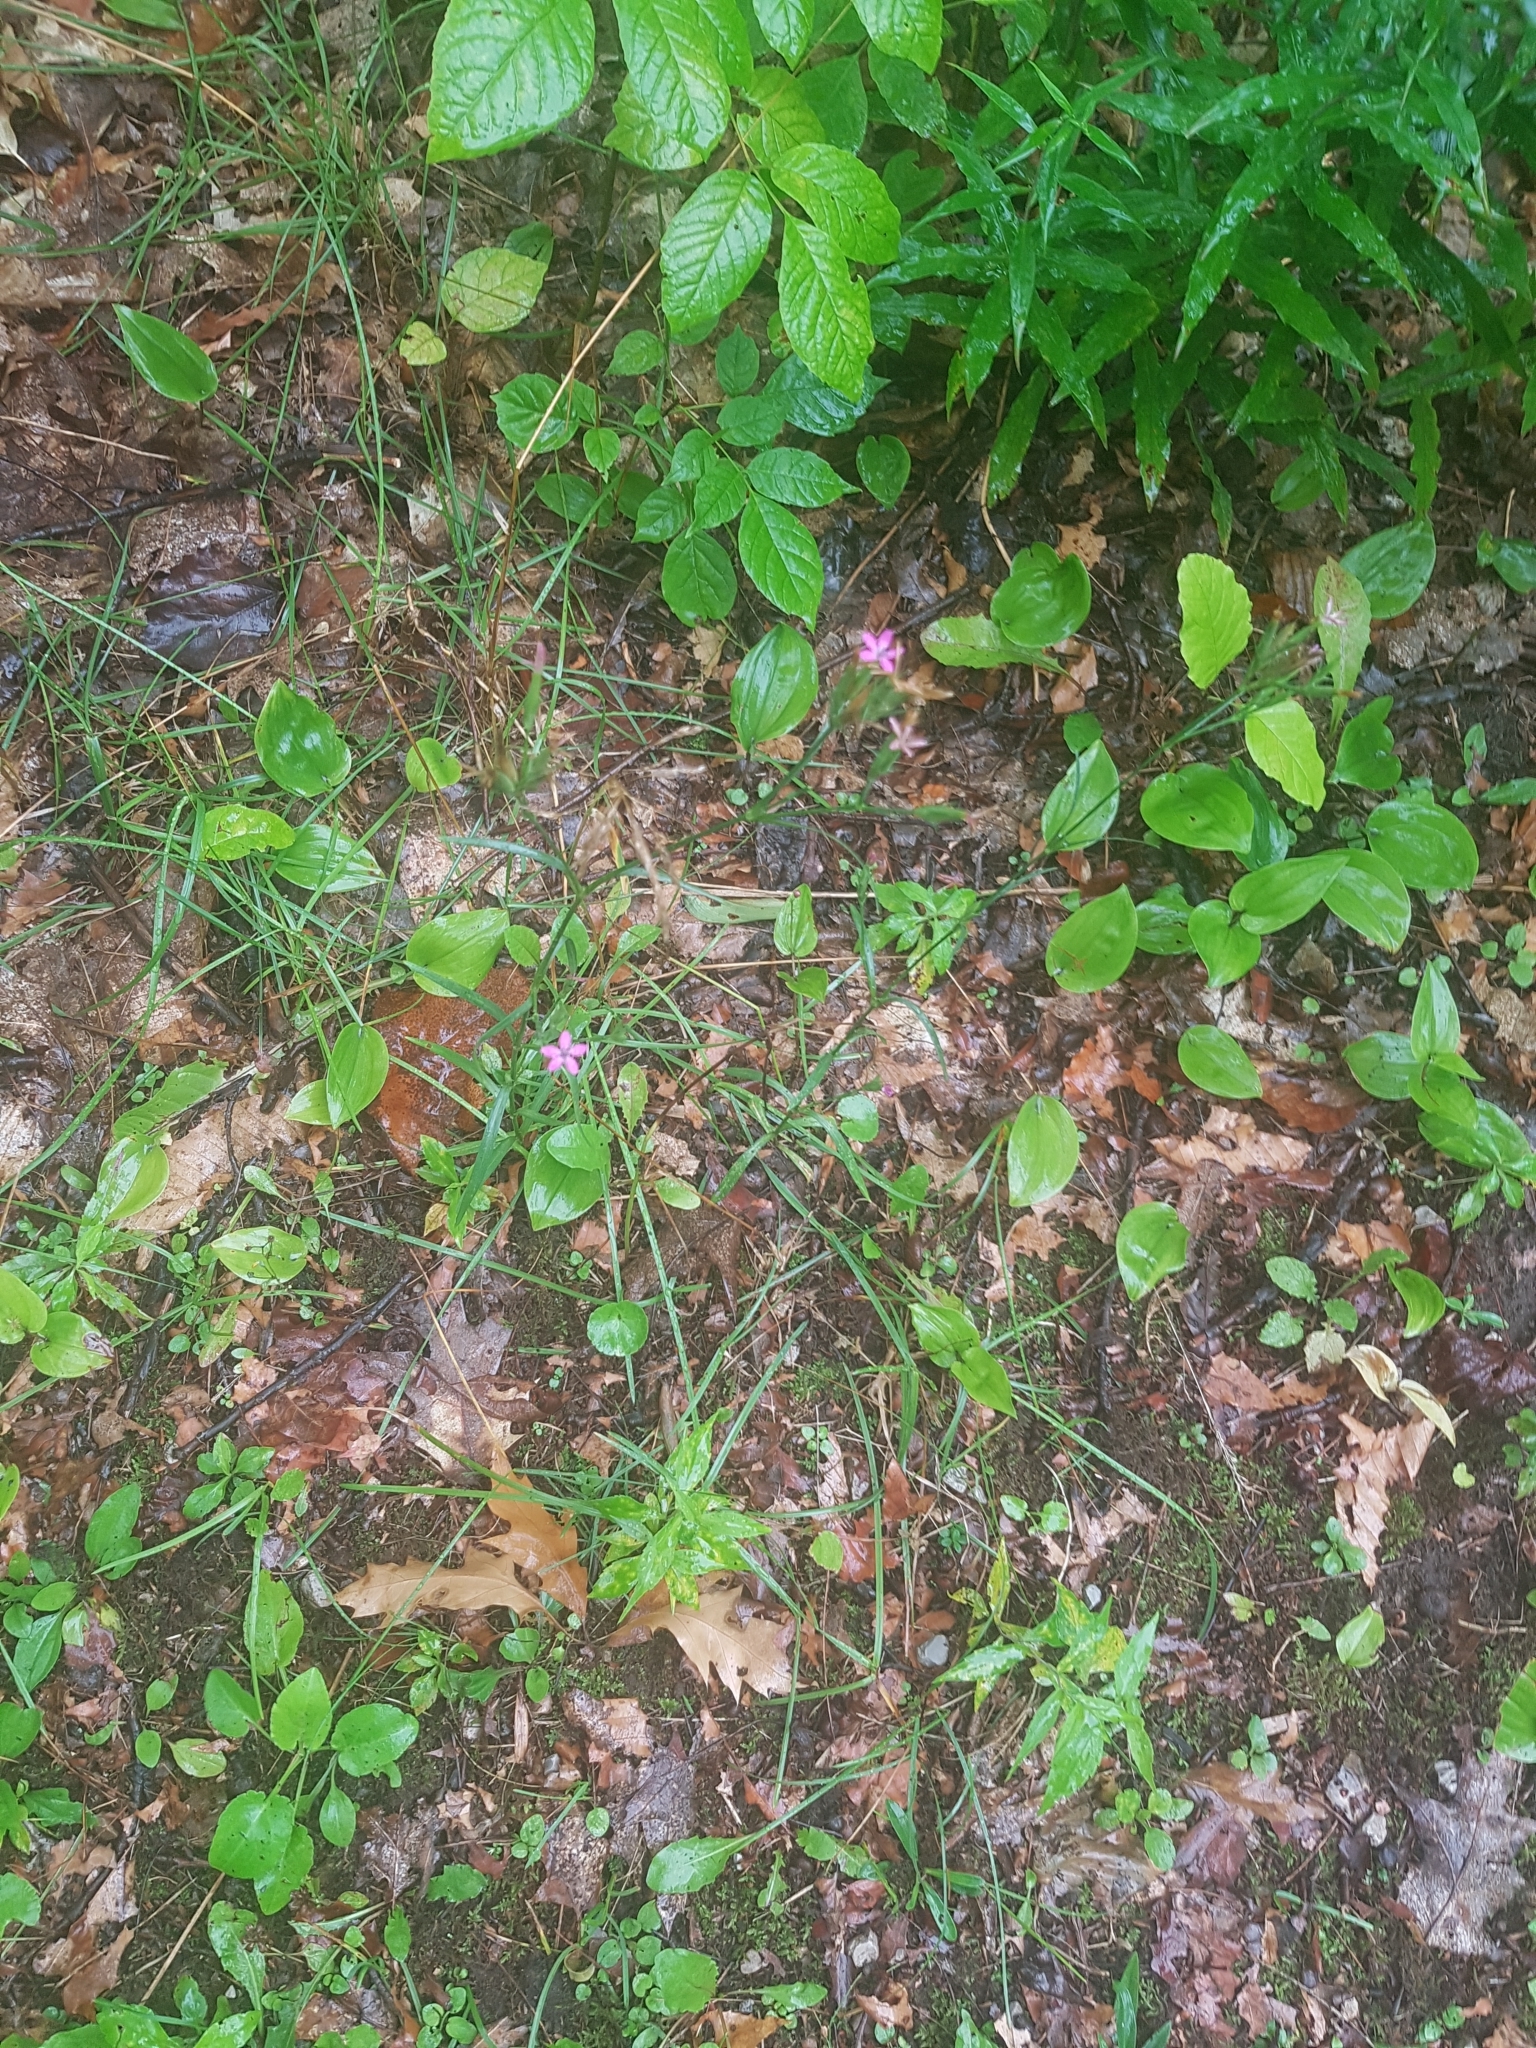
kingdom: Plantae
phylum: Tracheophyta
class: Magnoliopsida
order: Caryophyllales
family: Caryophyllaceae
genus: Dianthus
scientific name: Dianthus armeria
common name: Deptford pink
